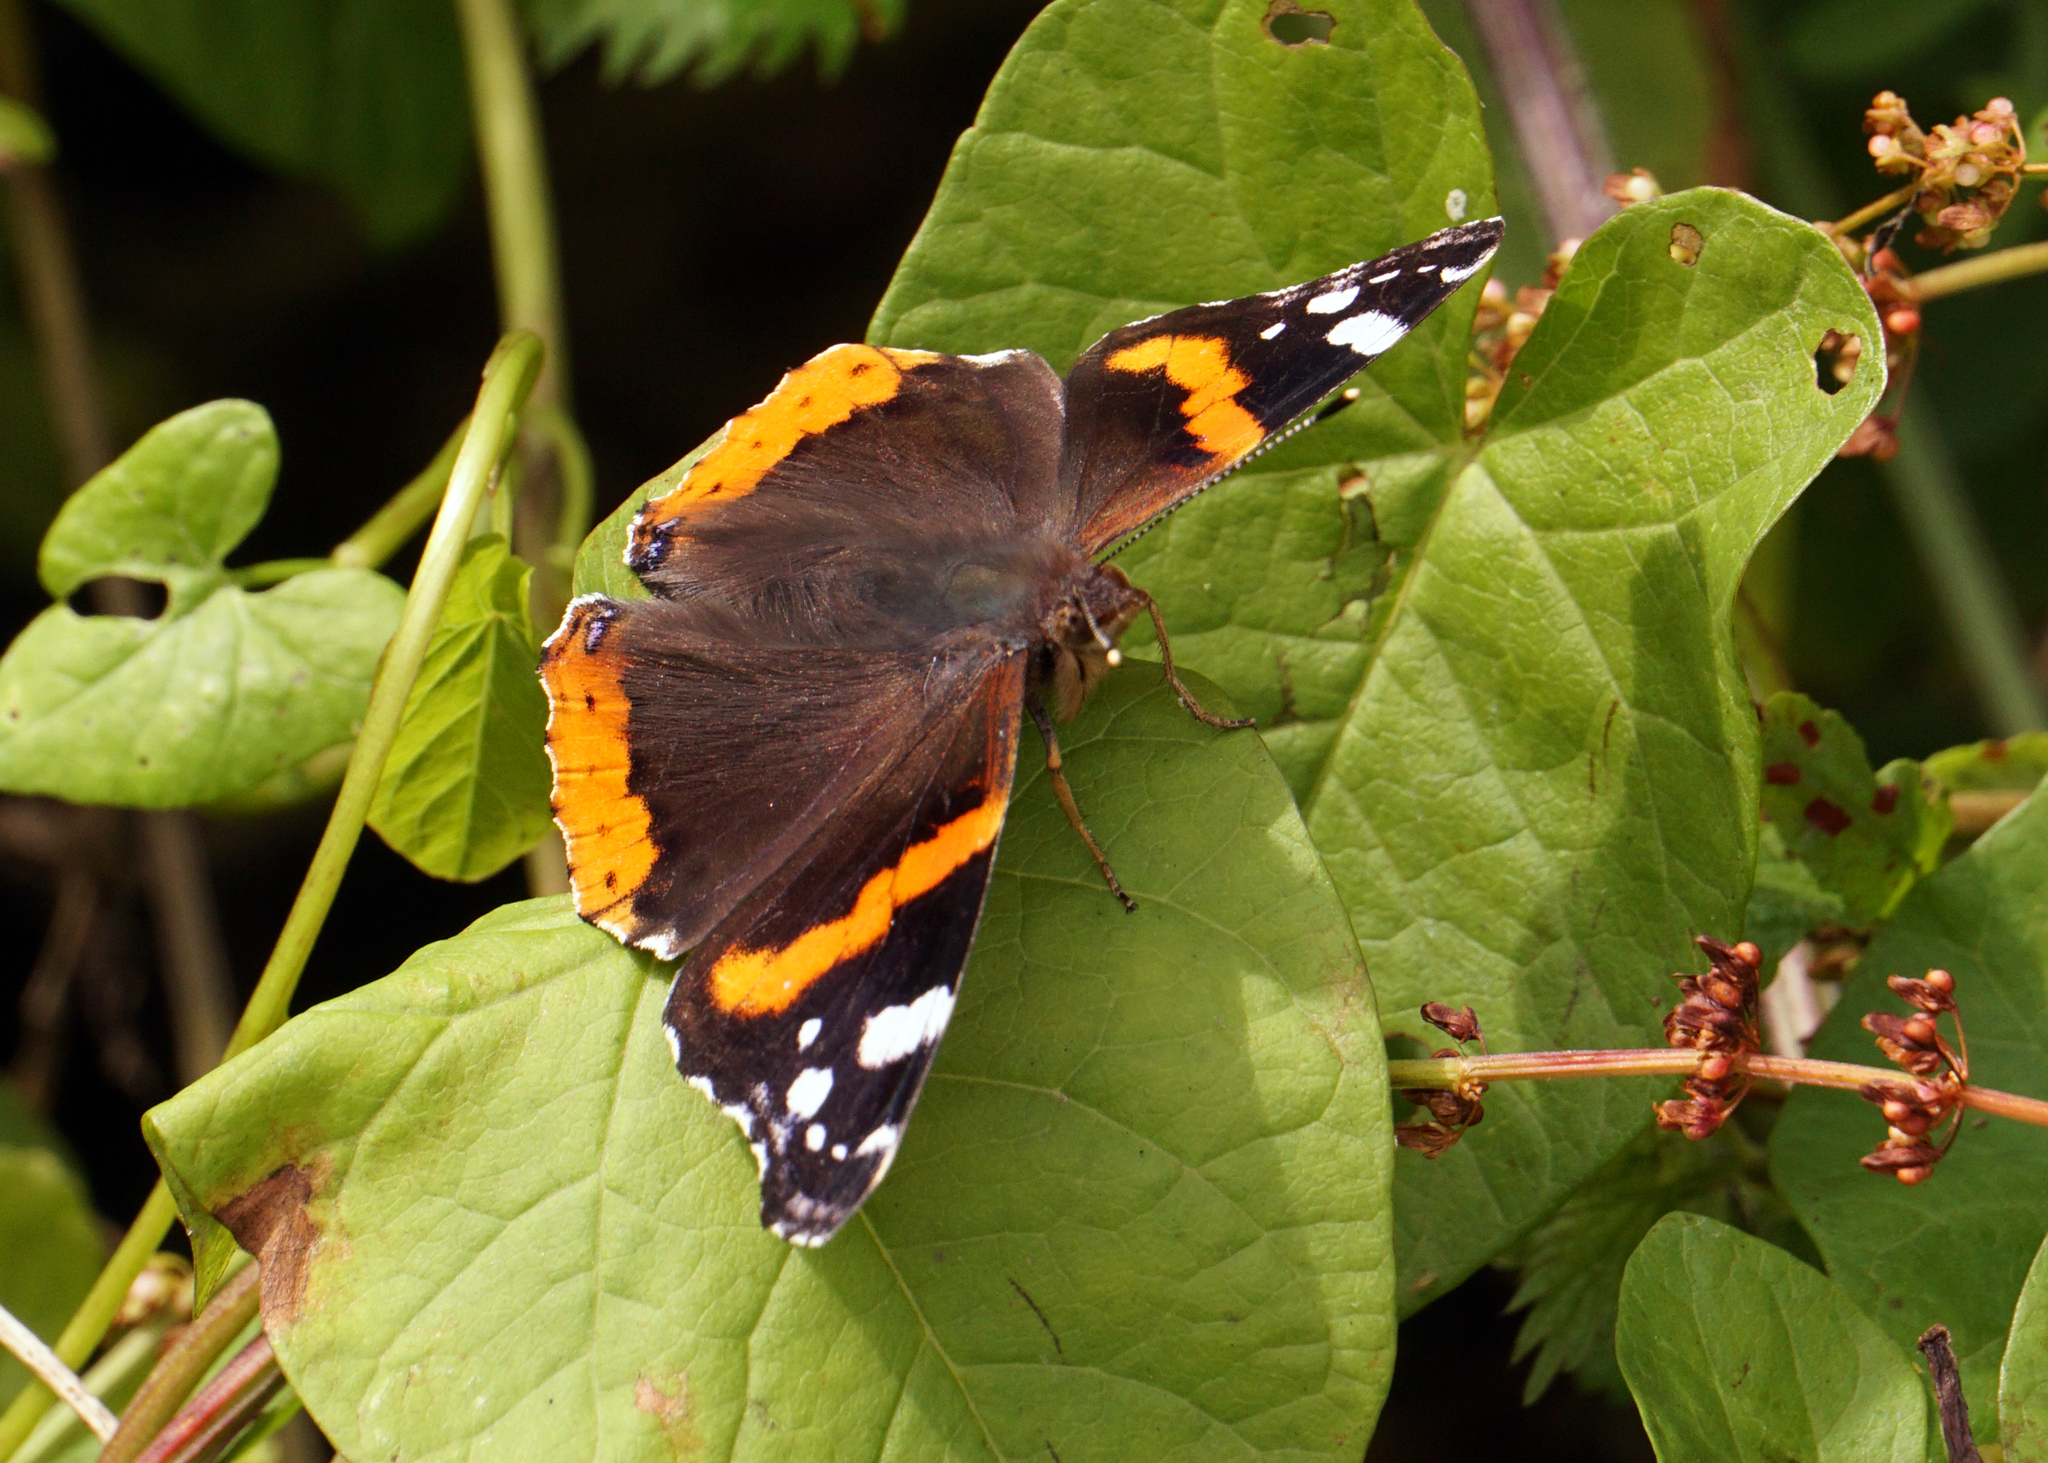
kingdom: Animalia
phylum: Arthropoda
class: Insecta
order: Lepidoptera
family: Nymphalidae
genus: Vanessa
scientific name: Vanessa atalanta
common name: Red admiral
